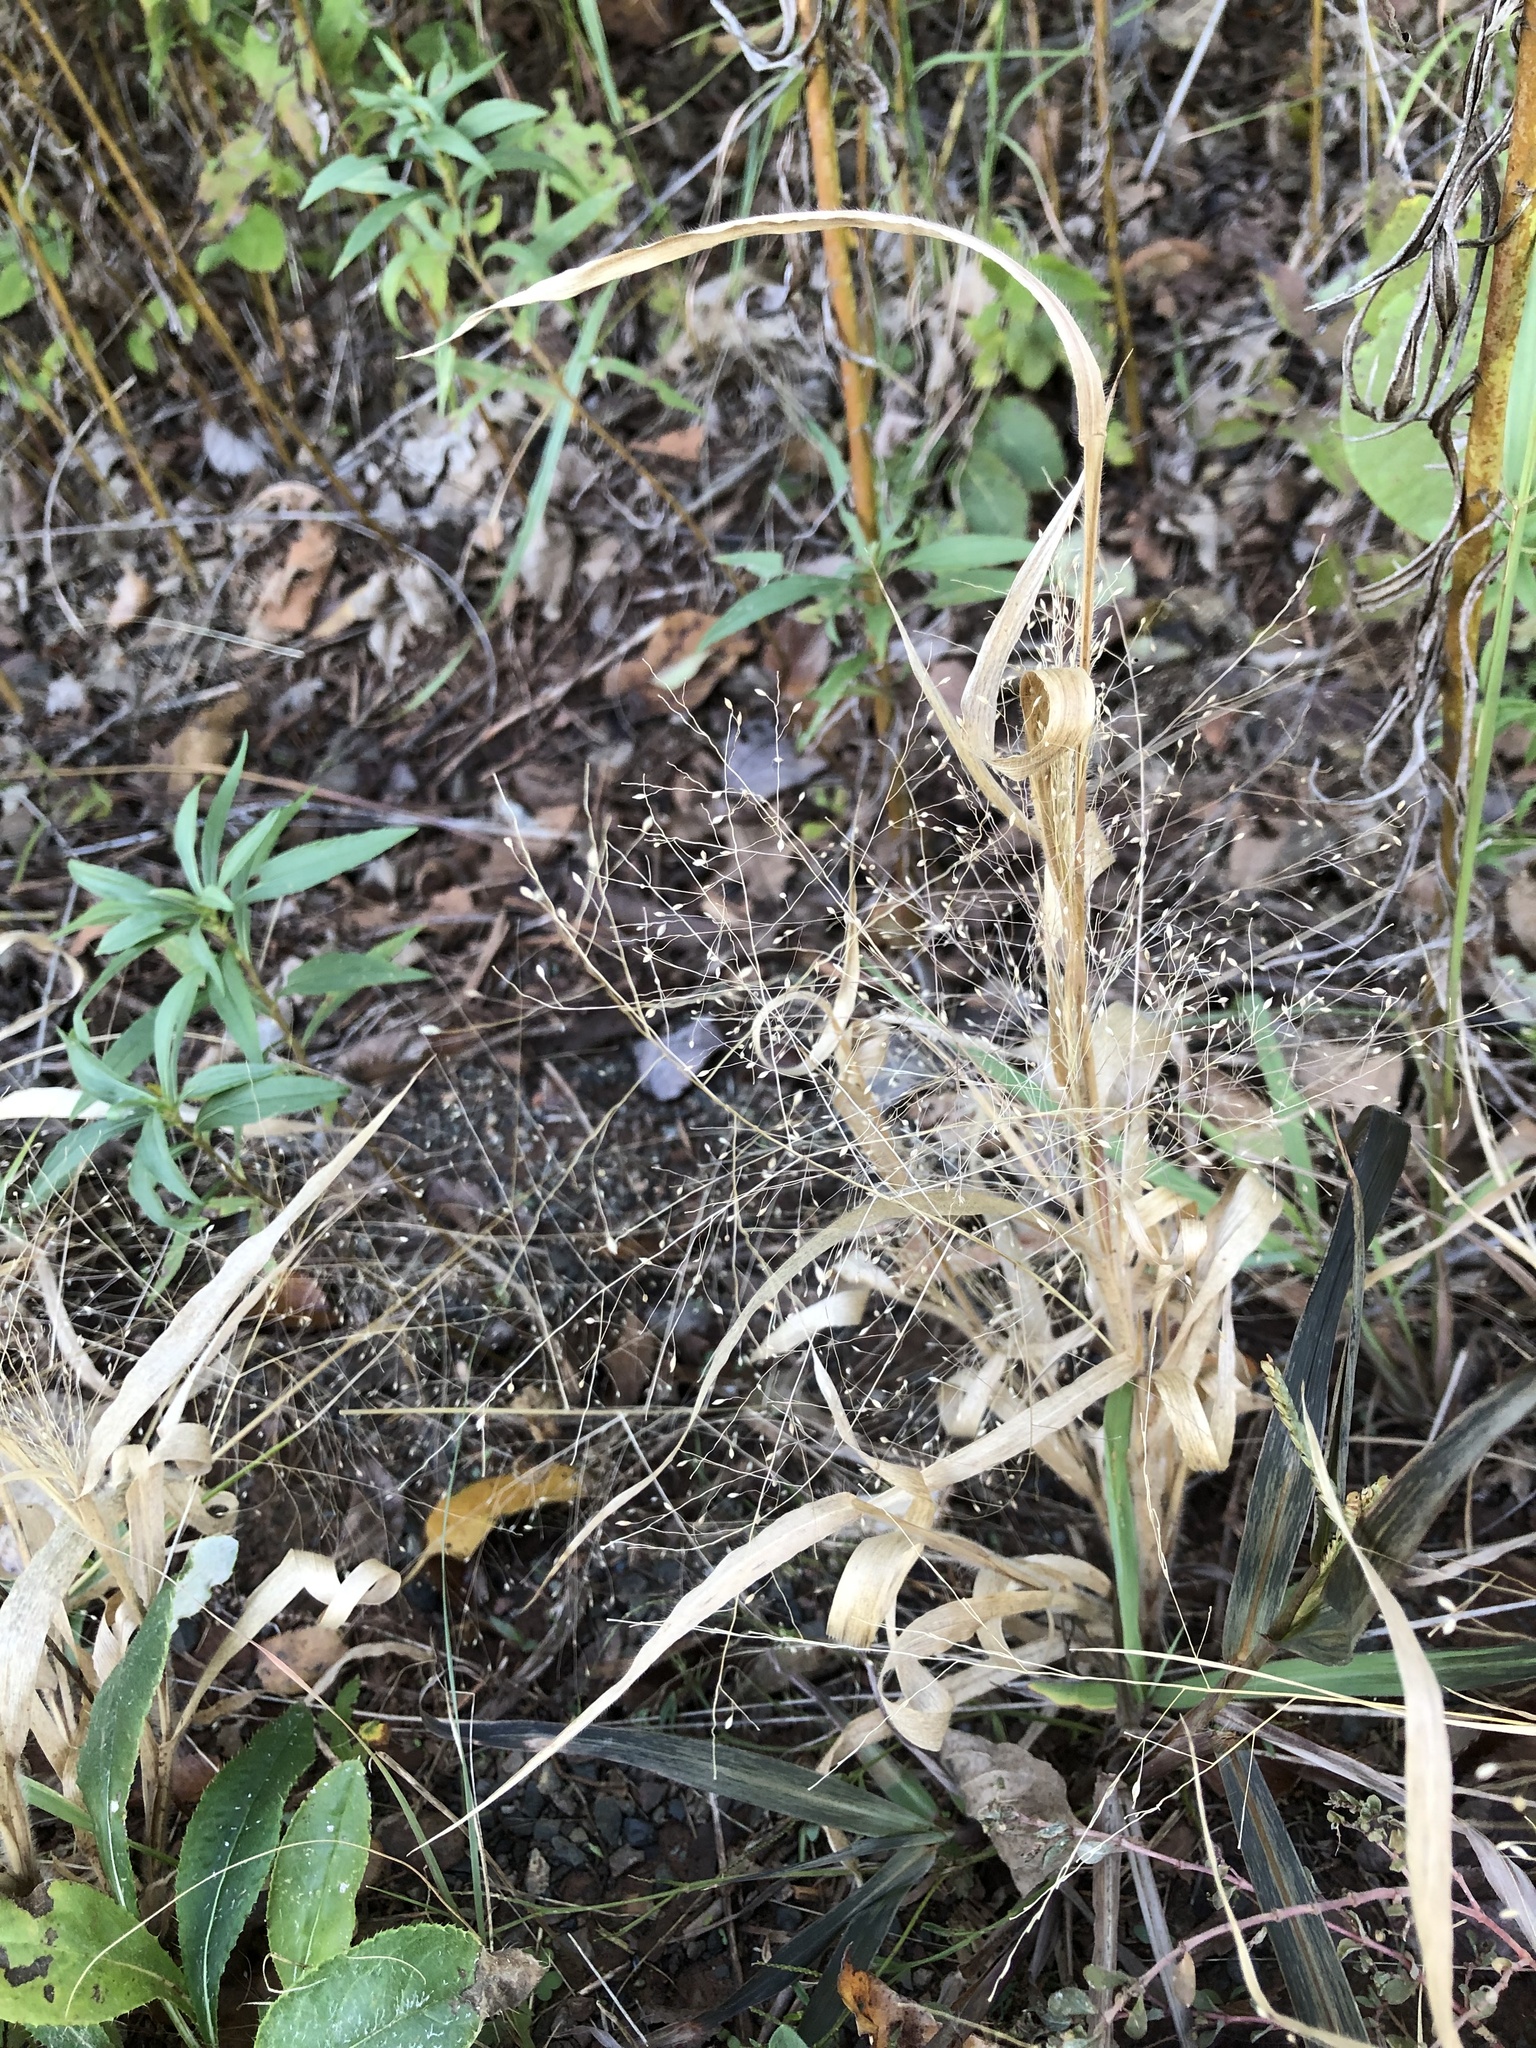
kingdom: Plantae
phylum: Tracheophyta
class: Liliopsida
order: Poales
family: Poaceae
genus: Panicum
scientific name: Panicum capillare
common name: Witch-grass
